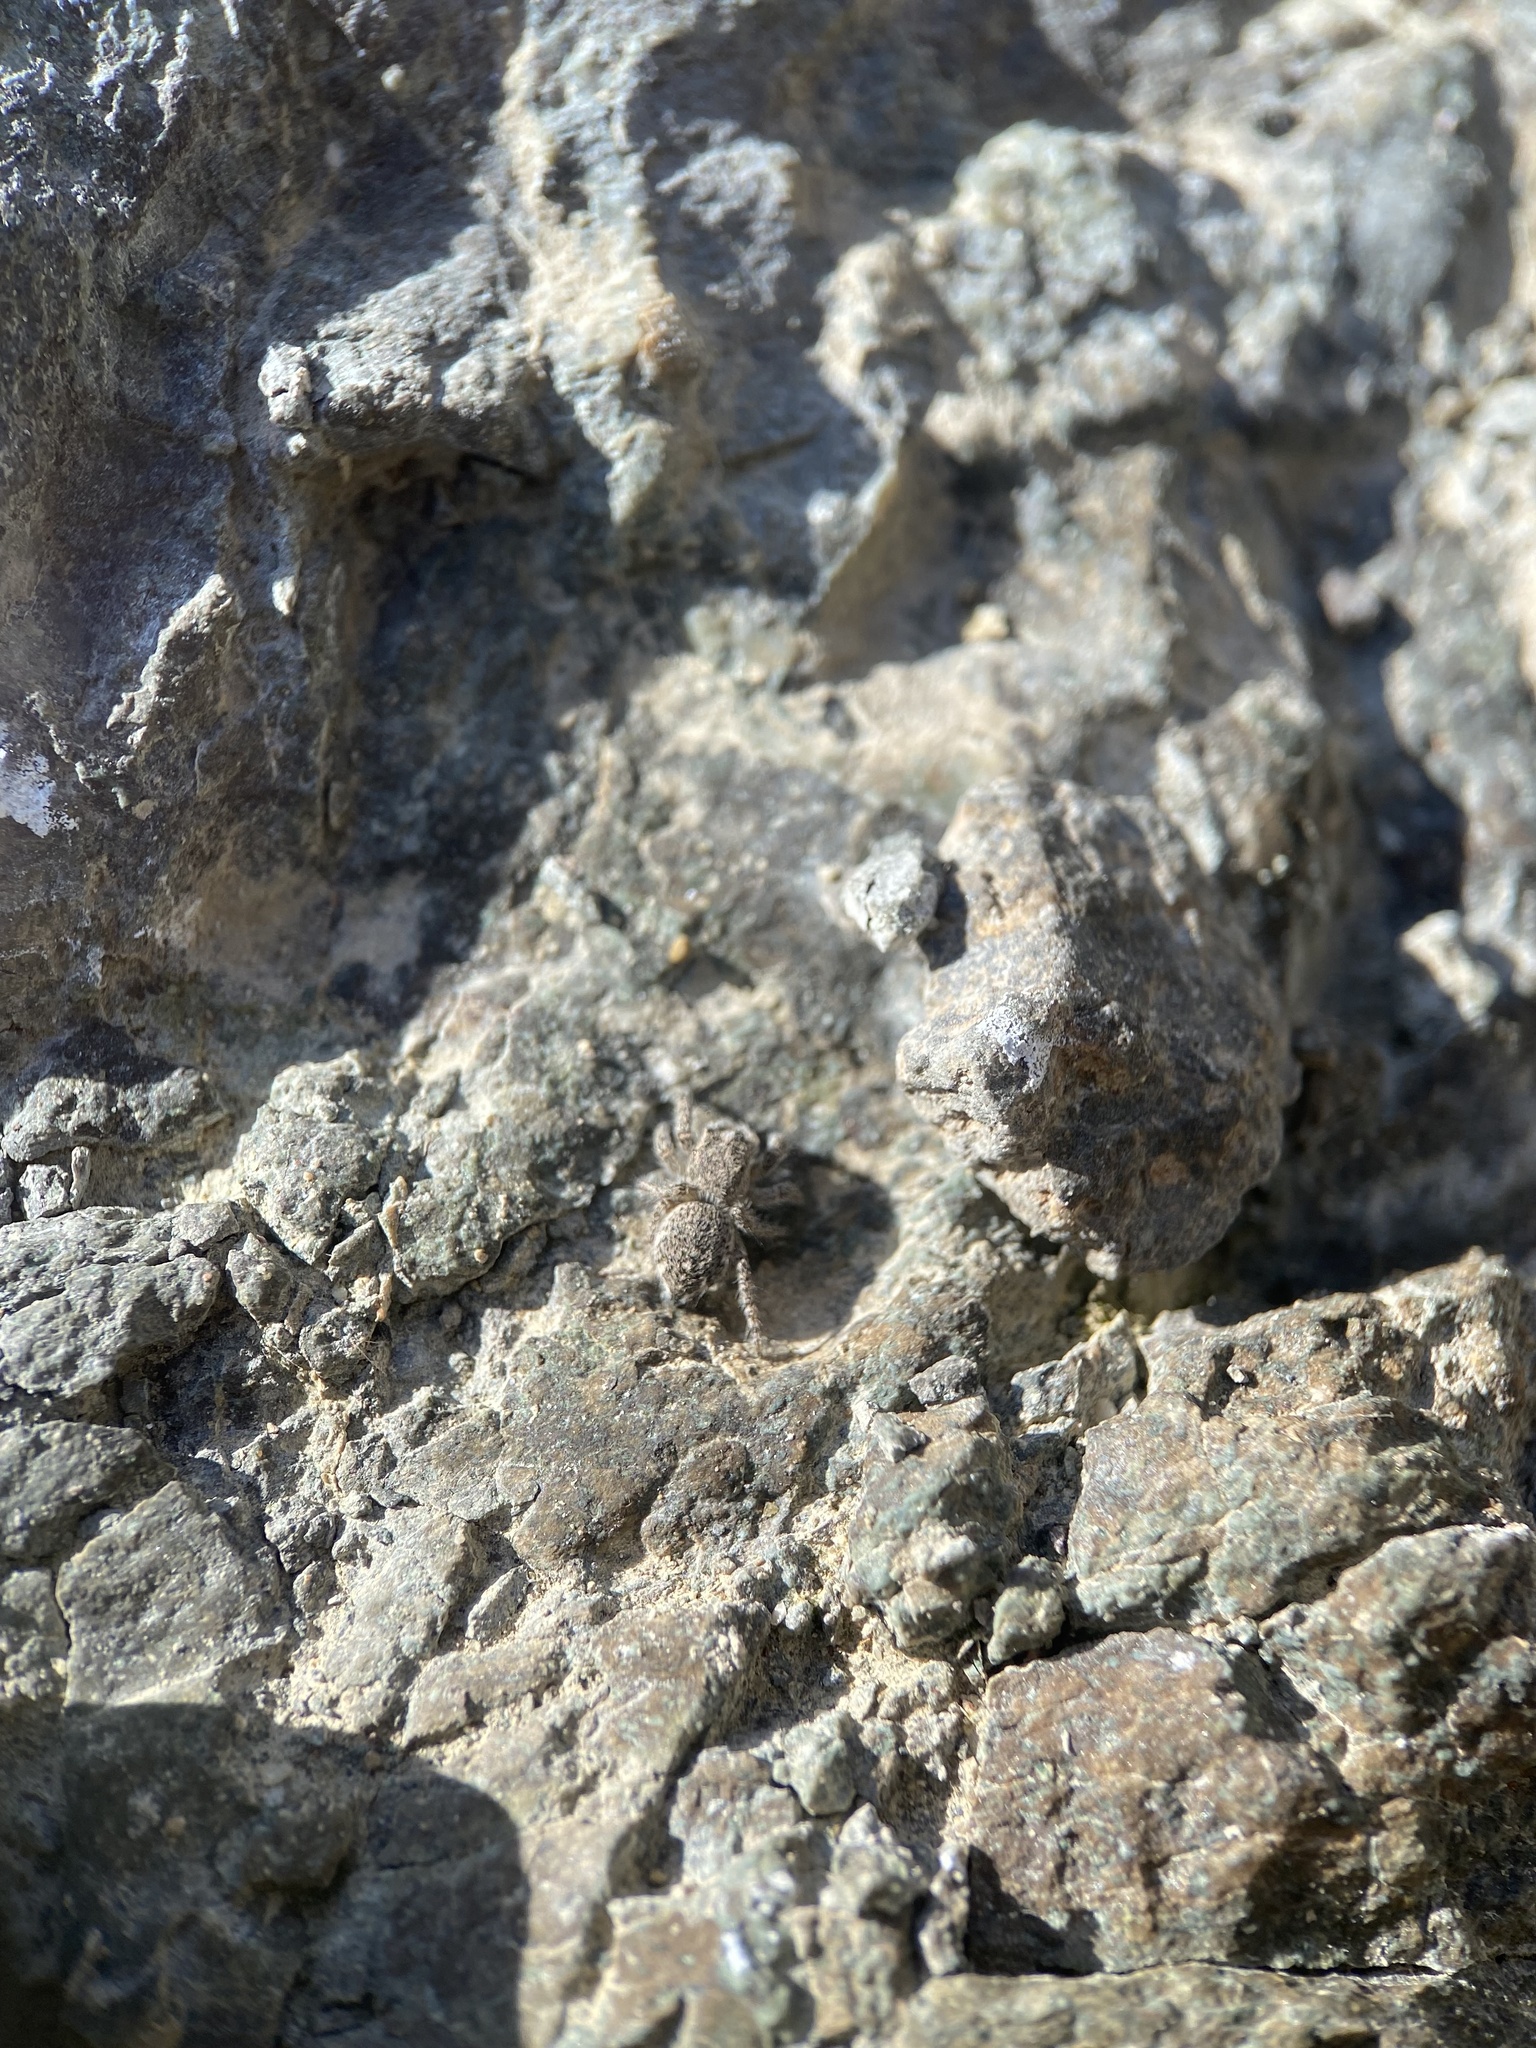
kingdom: Animalia
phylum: Arthropoda
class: Arachnida
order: Araneae
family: Salticidae
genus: Habronattus
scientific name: Habronattus hirsutus
